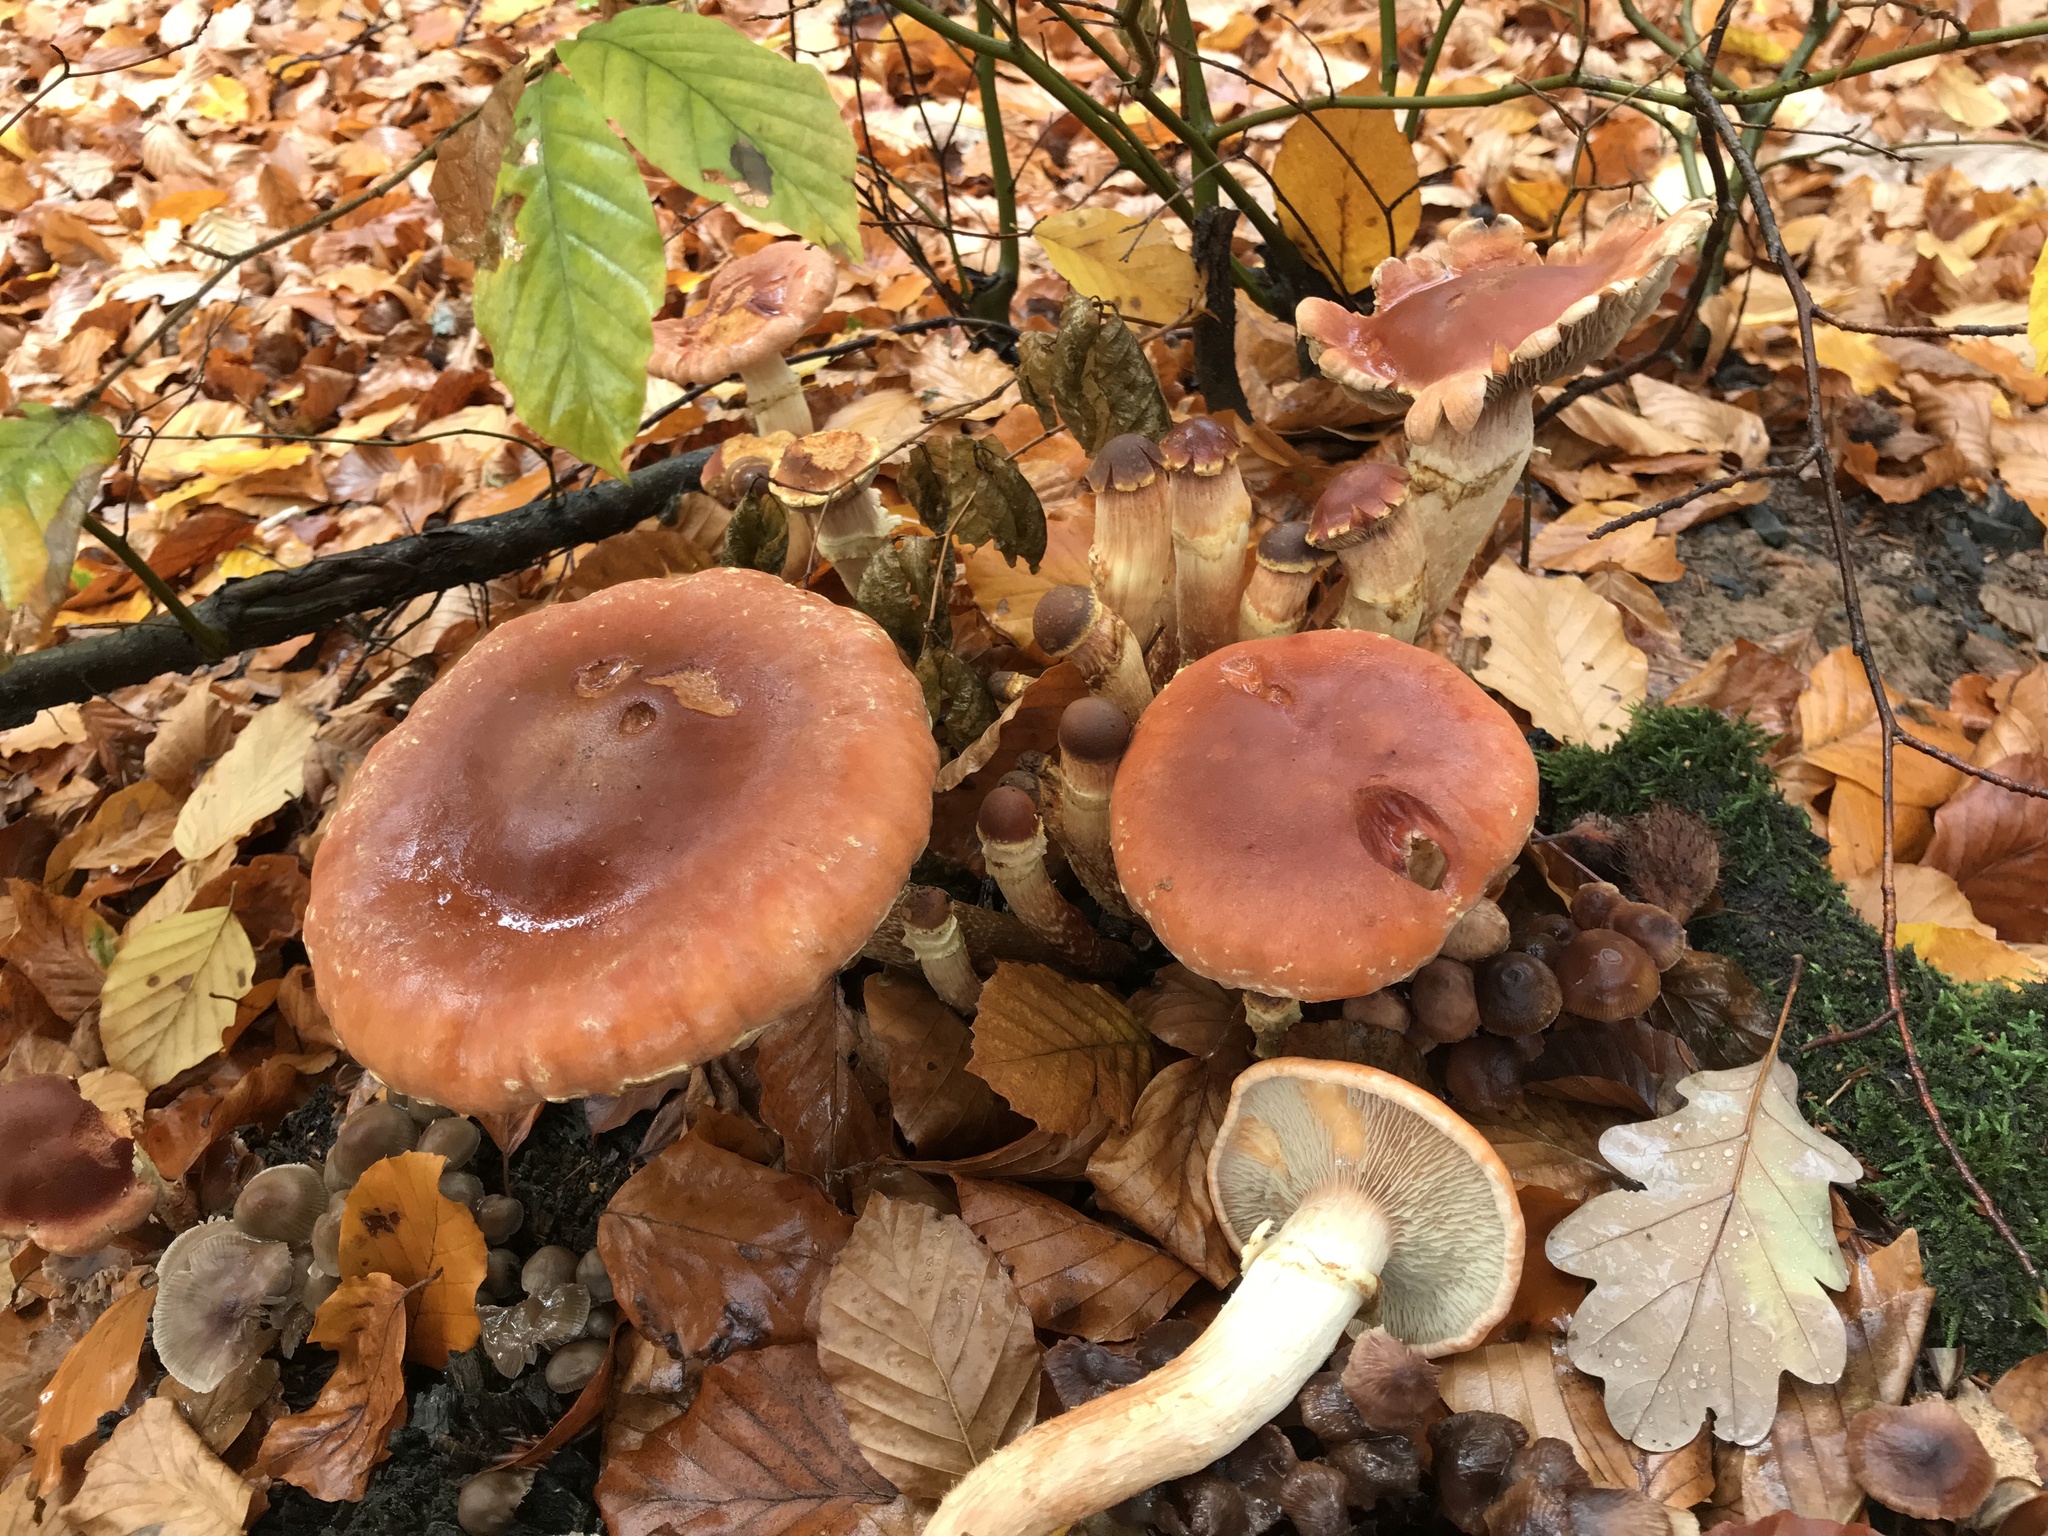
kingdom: Fungi
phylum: Basidiomycota
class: Agaricomycetes
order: Agaricales
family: Strophariaceae
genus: Hypholoma
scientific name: Hypholoma lateritium
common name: Brick caps
